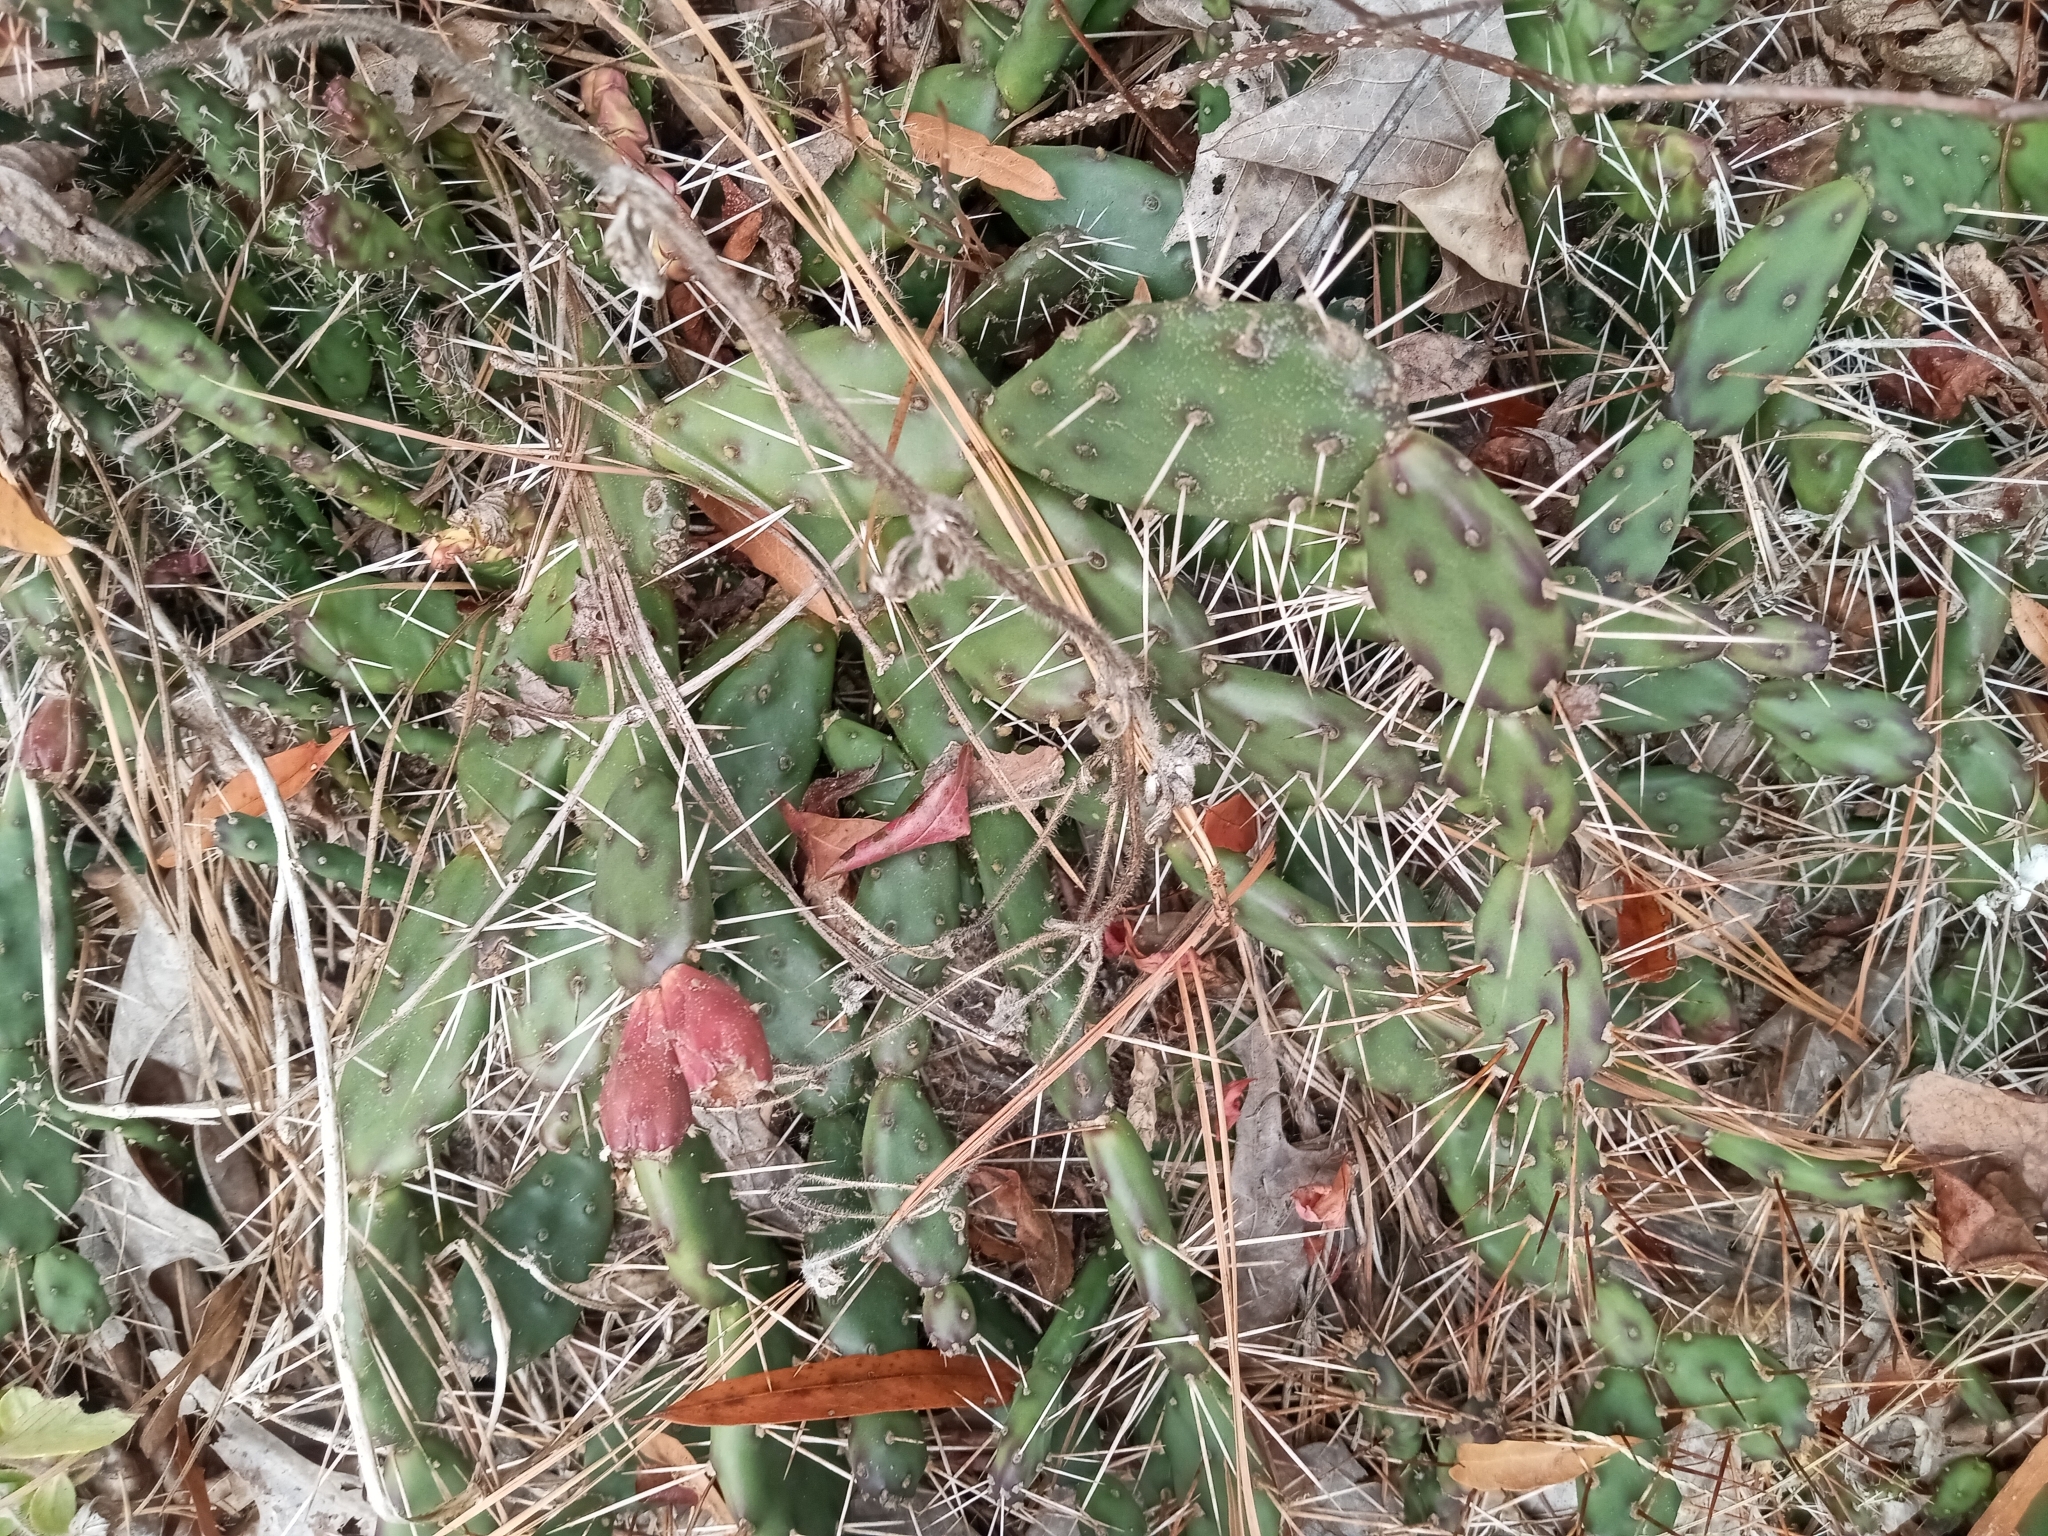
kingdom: Plantae
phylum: Tracheophyta
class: Magnoliopsida
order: Caryophyllales
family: Cactaceae
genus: Opuntia
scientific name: Opuntia drummondii
